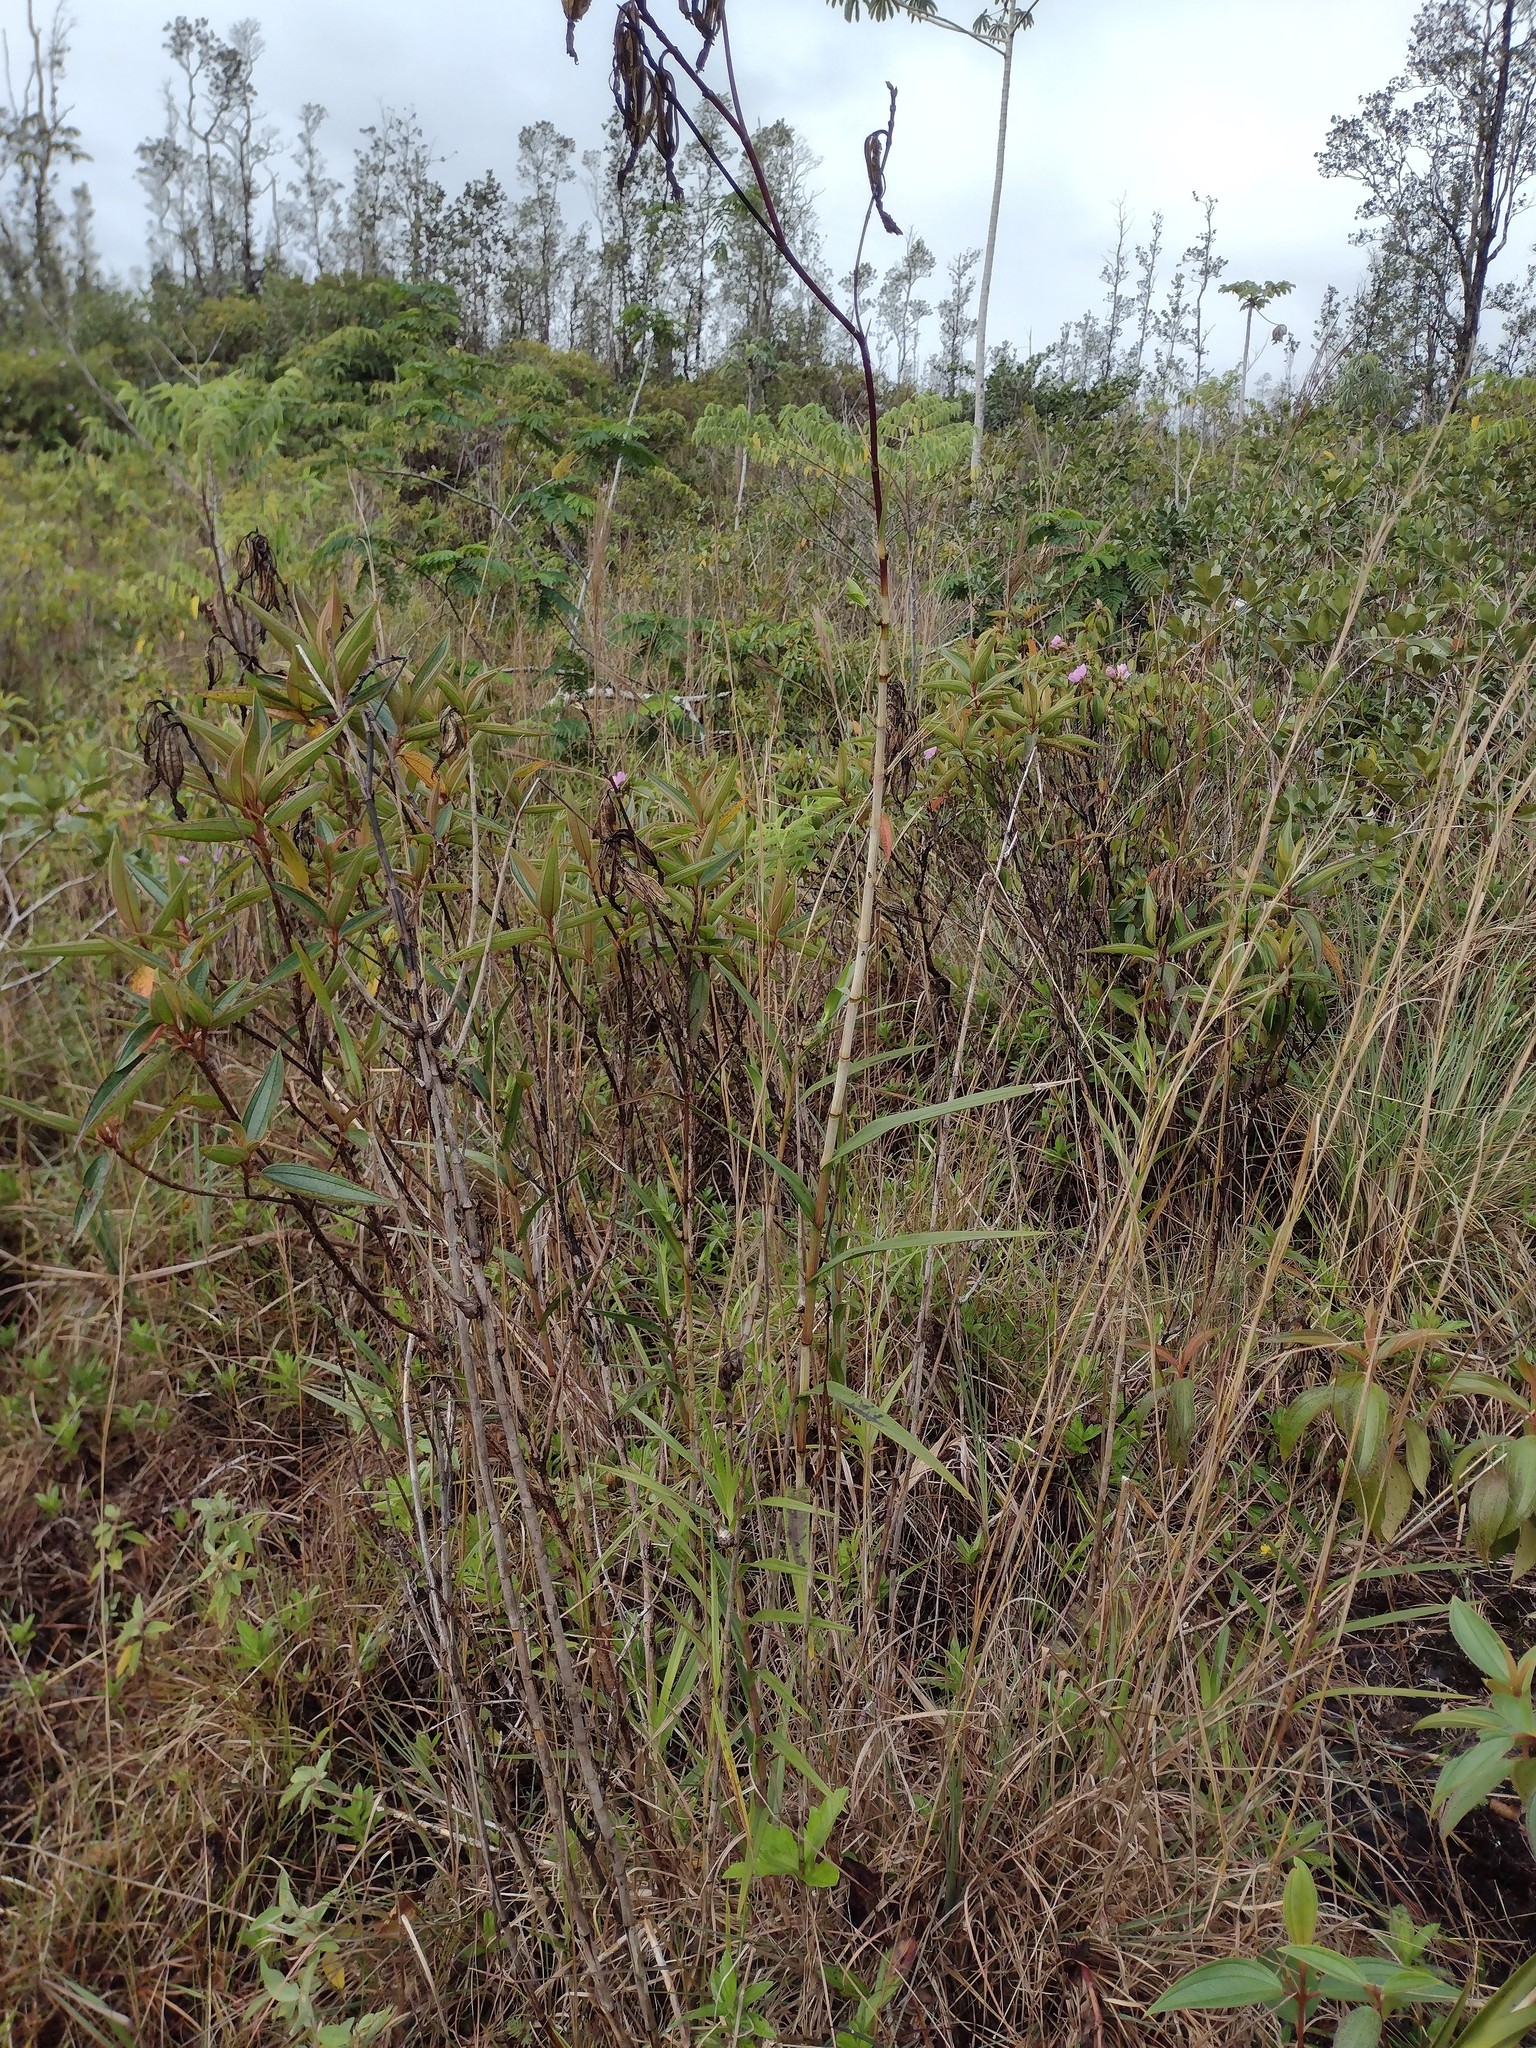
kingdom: Plantae
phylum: Tracheophyta
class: Liliopsida
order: Asparagales
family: Orchidaceae
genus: Arundina
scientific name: Arundina graminifolia
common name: Bamboo orchid
